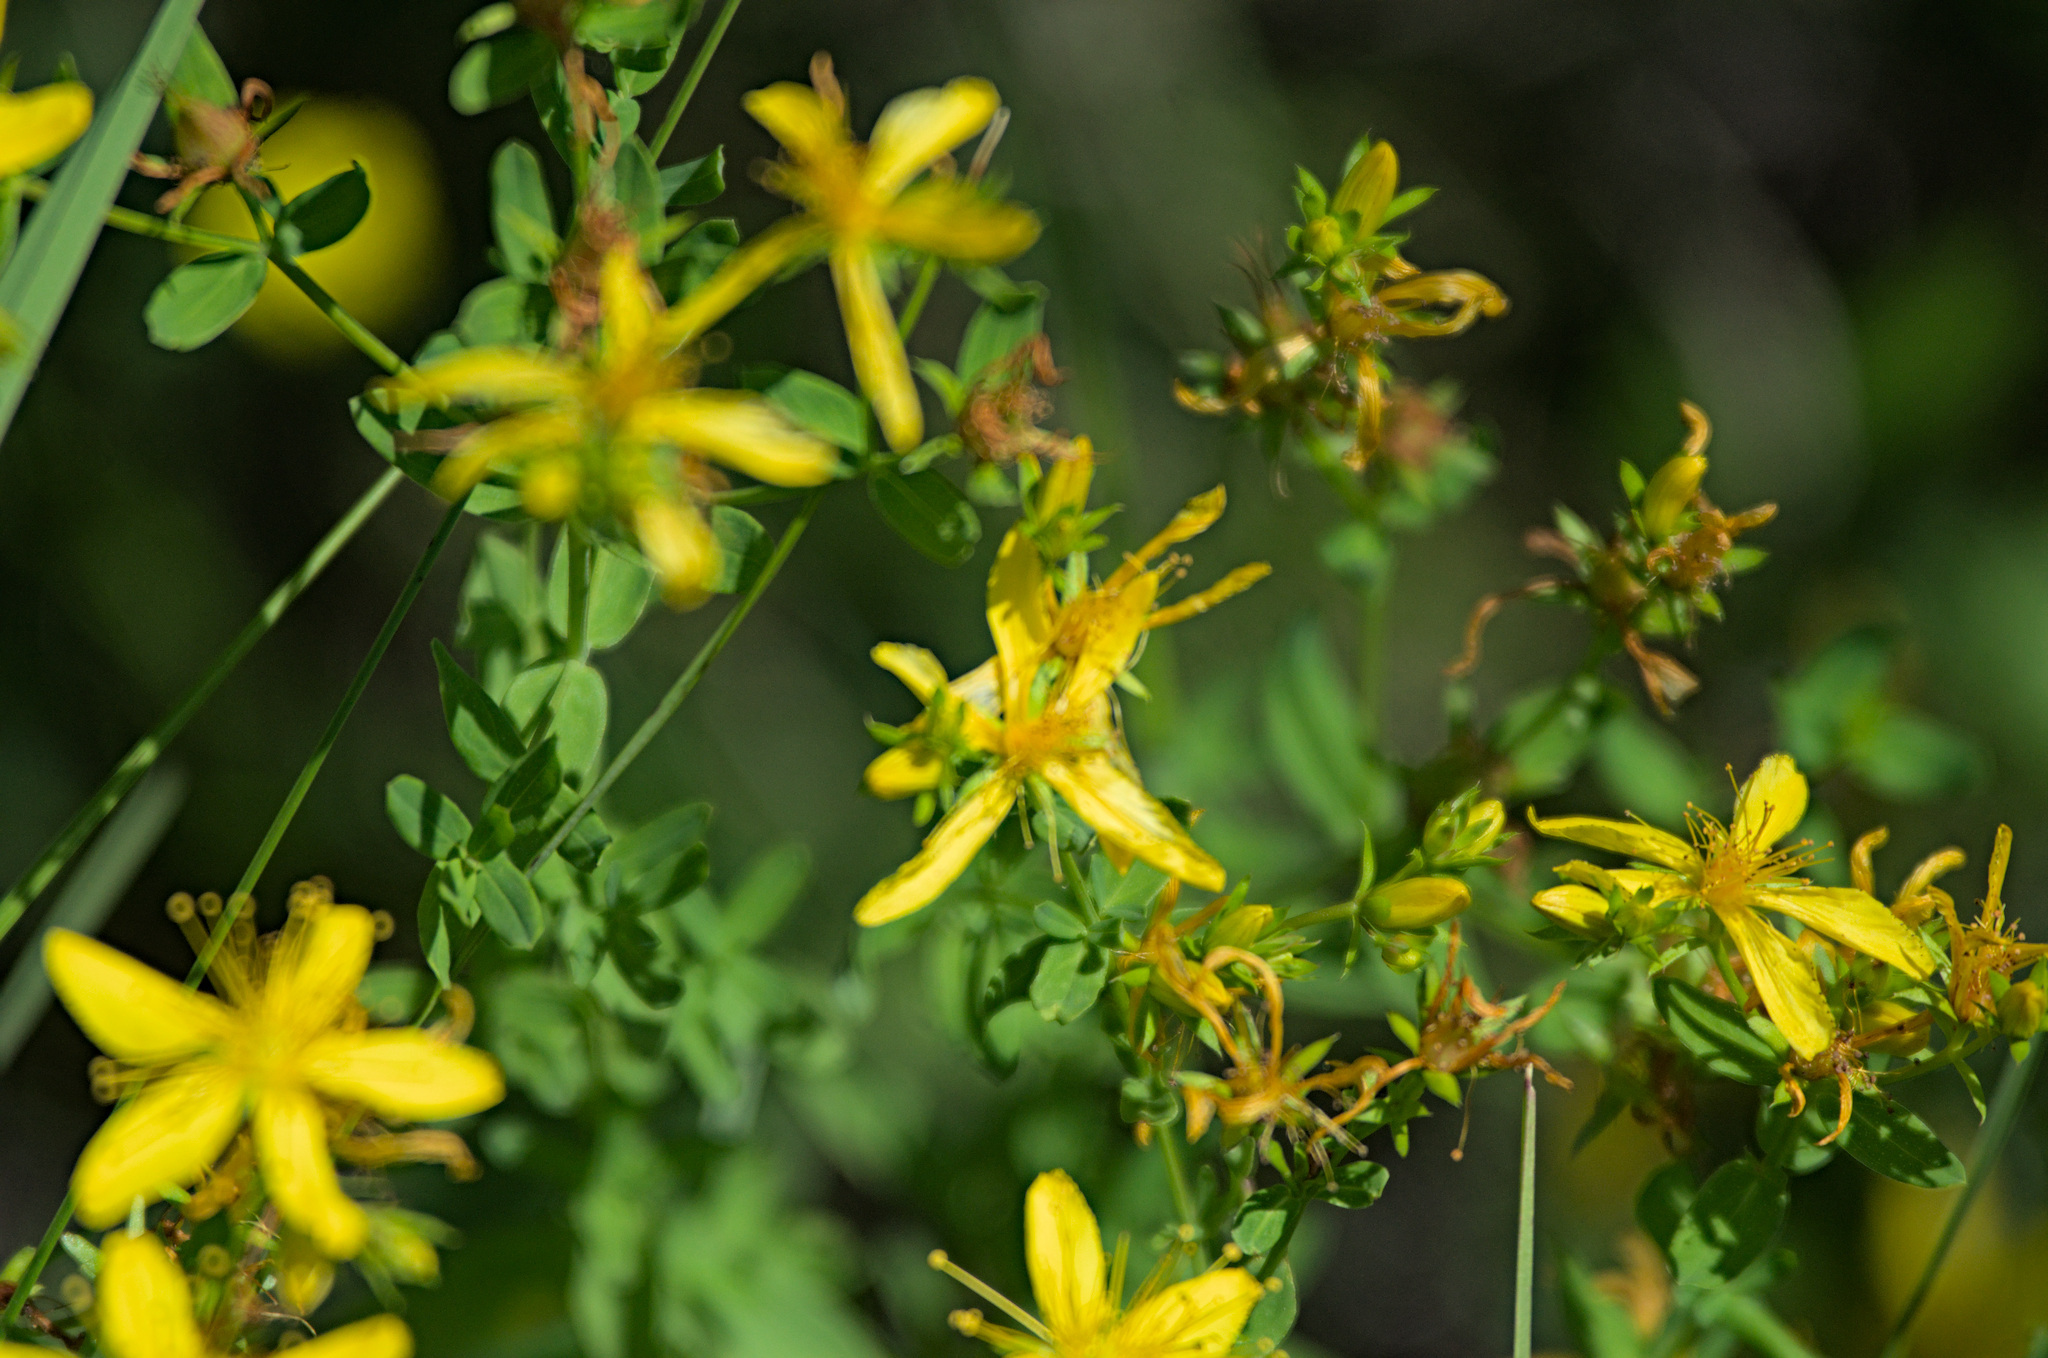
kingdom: Plantae
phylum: Tracheophyta
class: Magnoliopsida
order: Malpighiales
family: Hypericaceae
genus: Hypericum
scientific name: Hypericum perforatum
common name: Common st. johnswort
